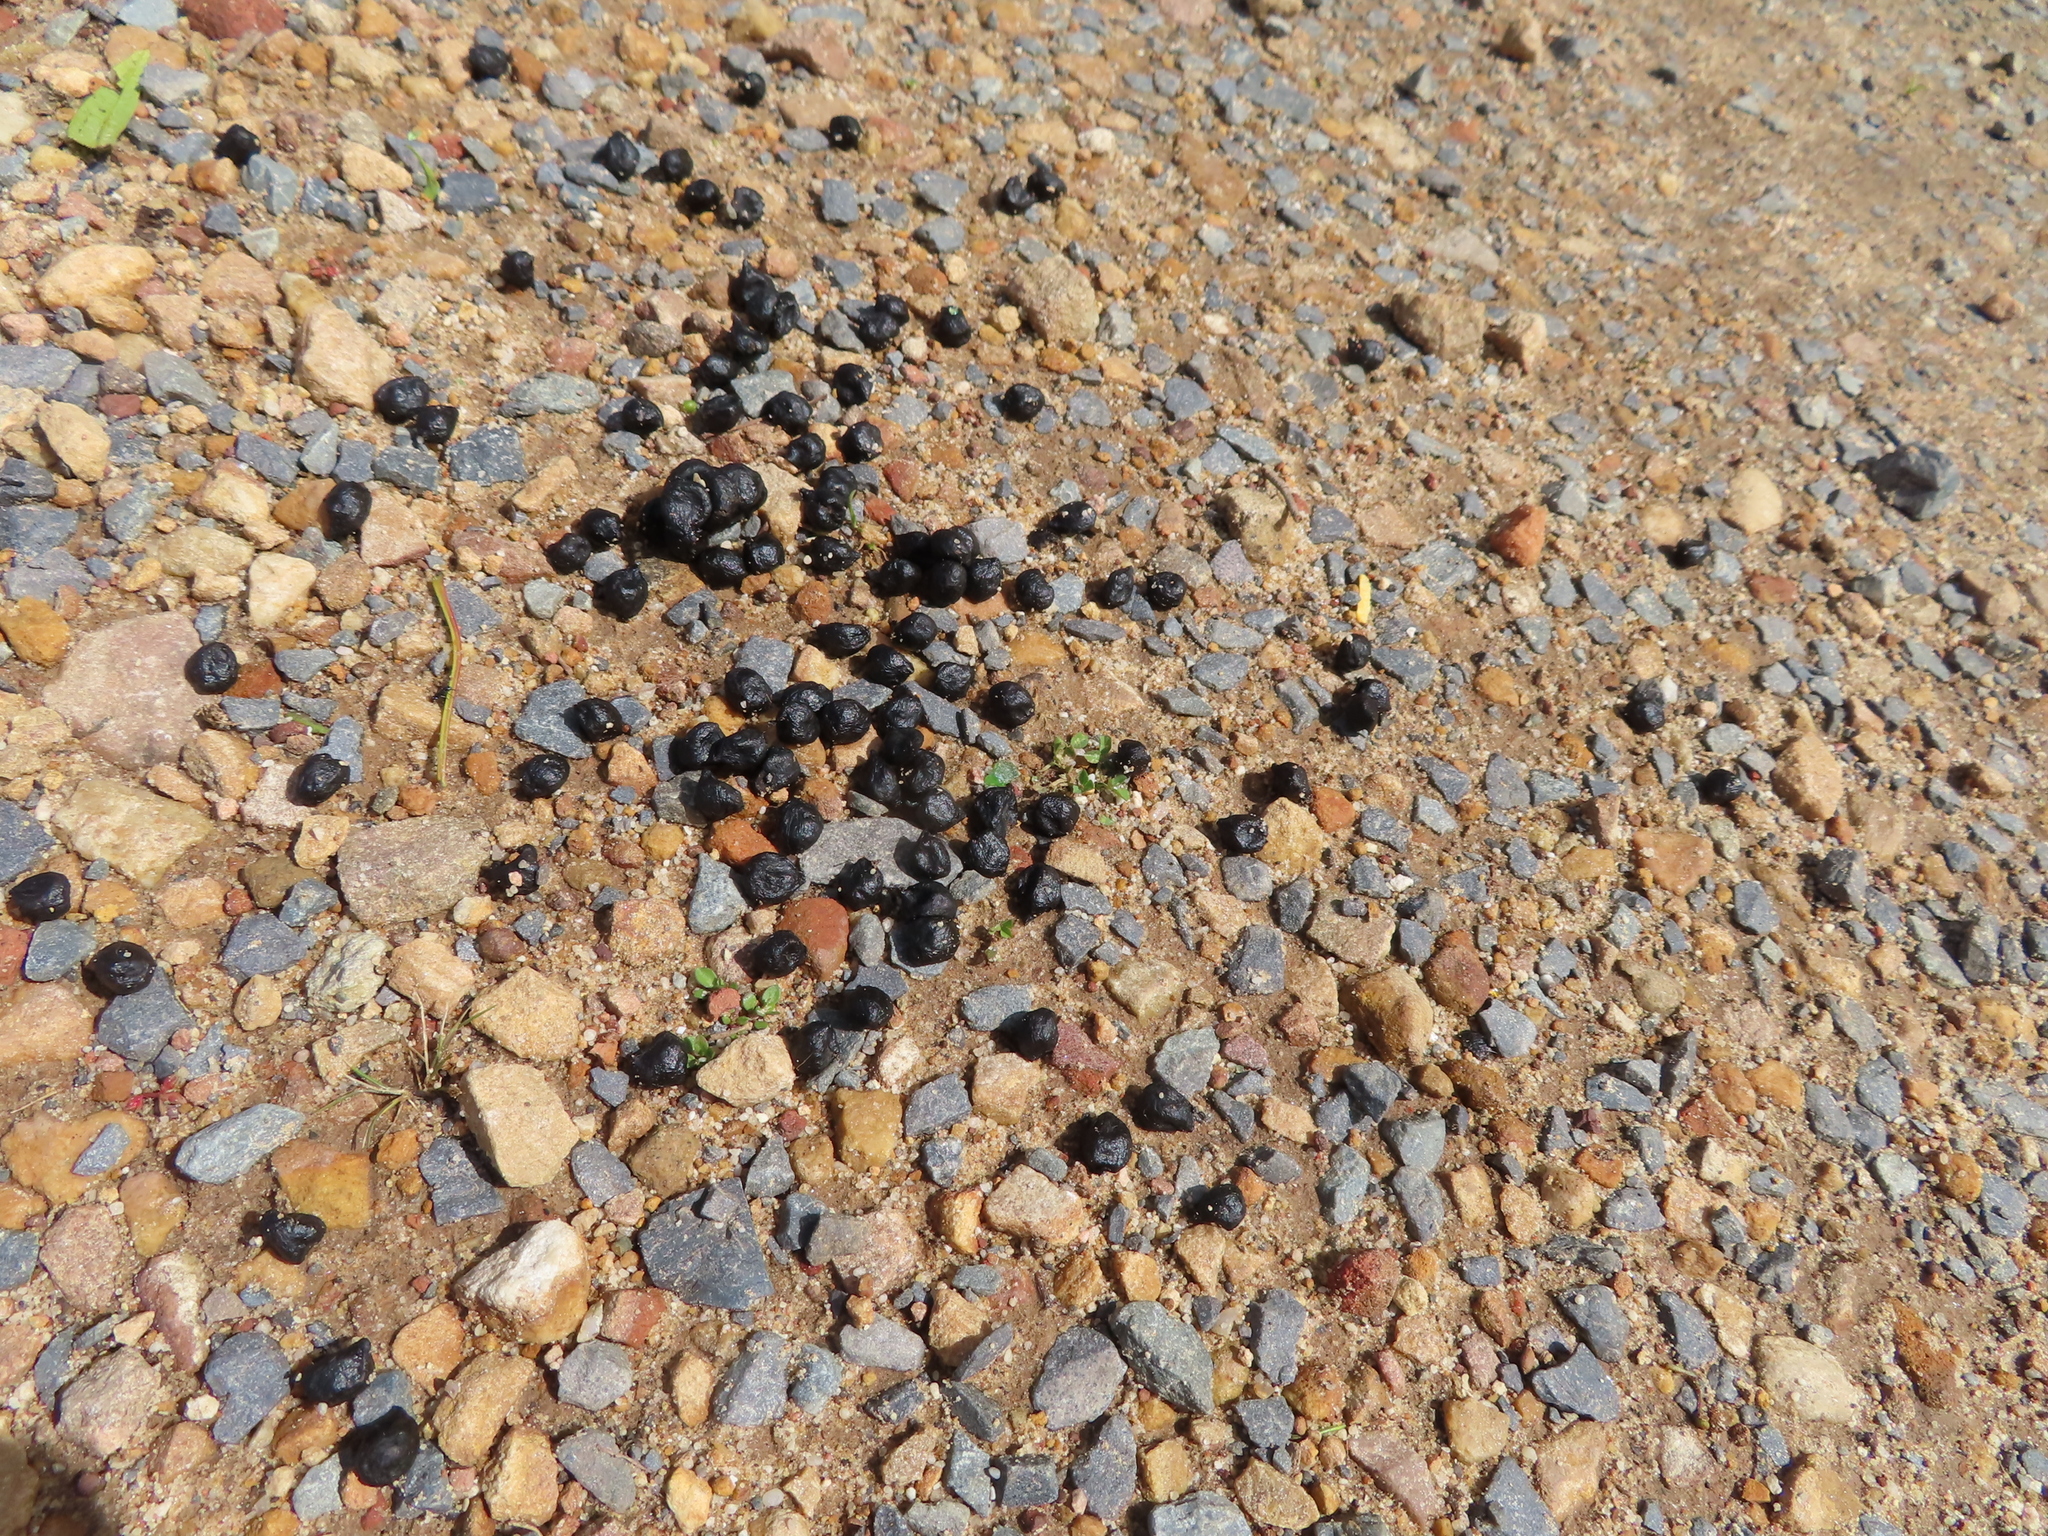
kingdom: Animalia
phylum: Chordata
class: Mammalia
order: Artiodactyla
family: Bovidae
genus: Sylvicapra
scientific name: Sylvicapra grimmia
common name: Bush duiker
